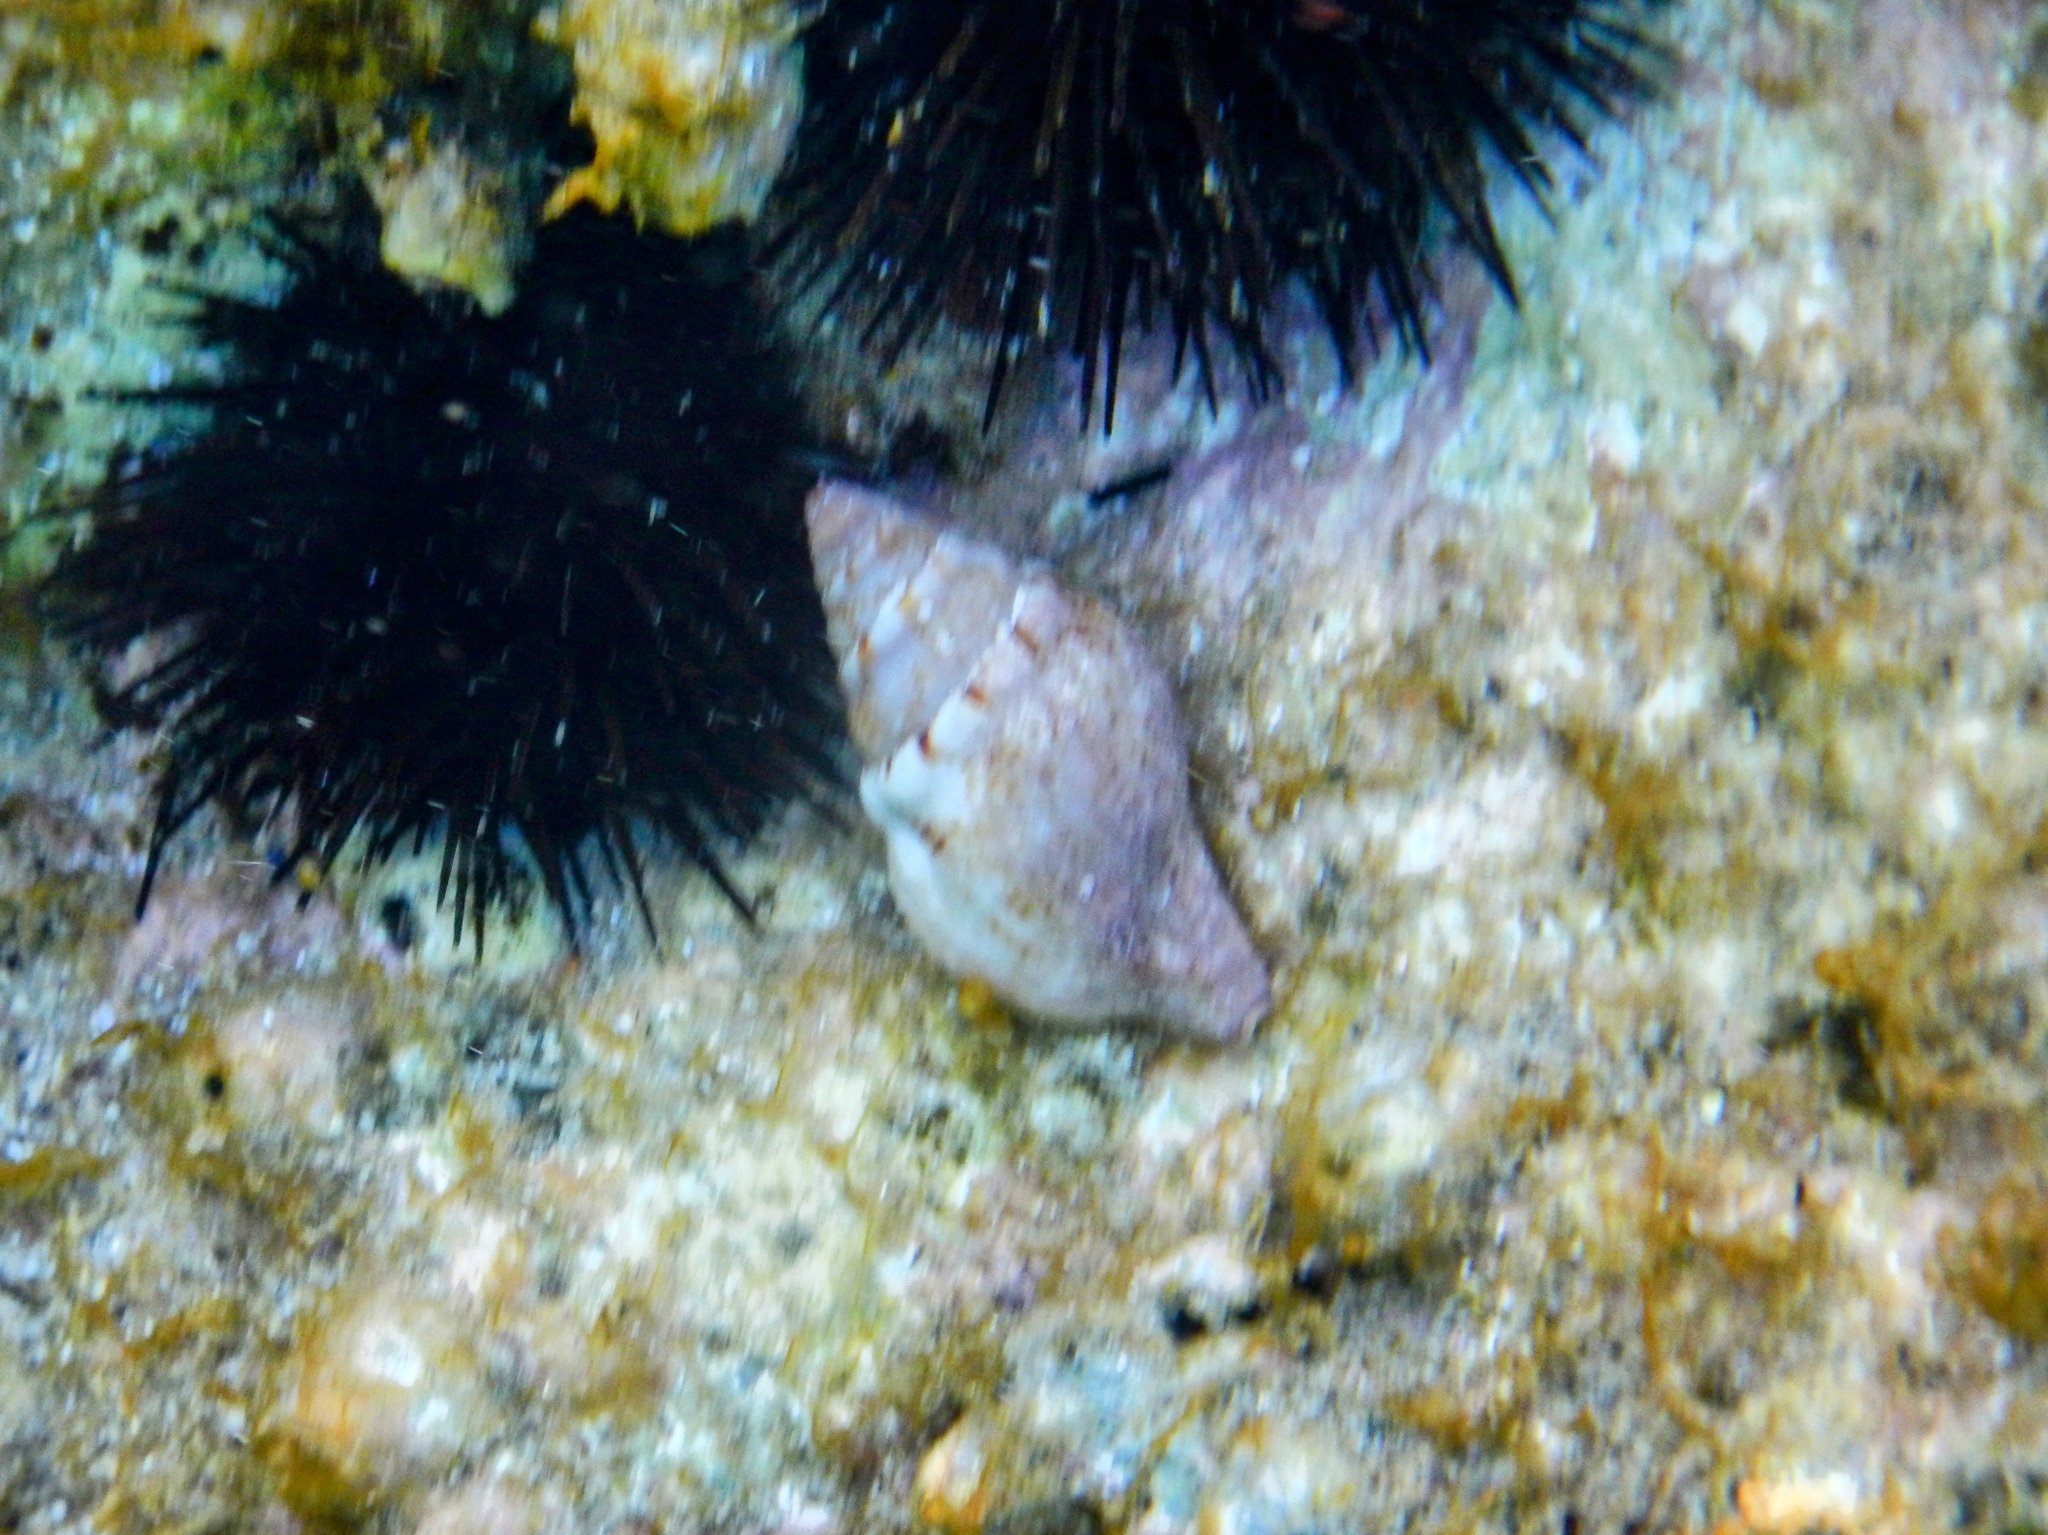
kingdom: Animalia
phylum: Mollusca
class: Gastropoda
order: Neogastropoda
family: Tudiclidae
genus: Euthria
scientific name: Euthria cornea
